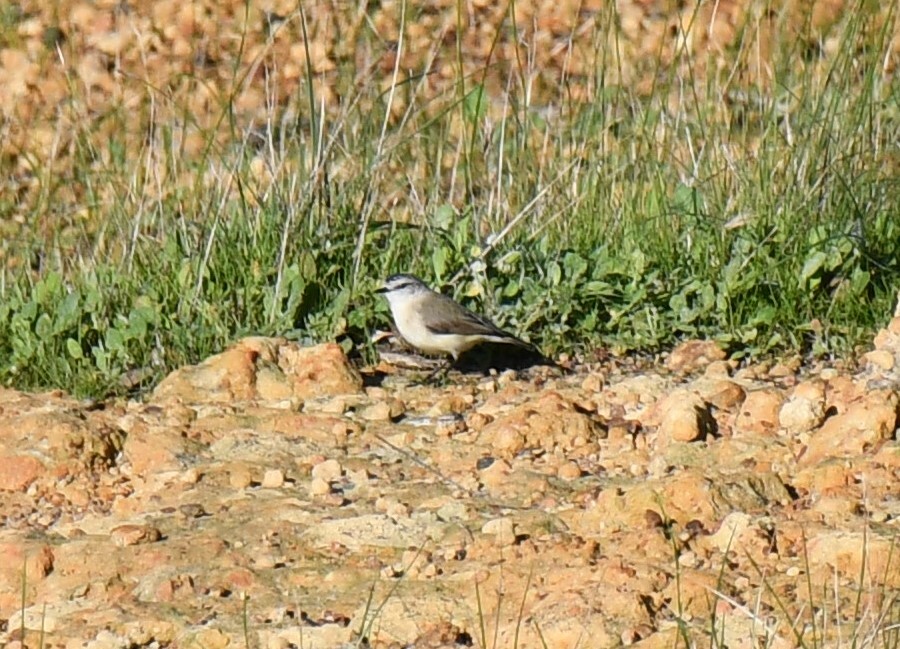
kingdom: Animalia
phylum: Chordata
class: Aves
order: Passeriformes
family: Acanthizidae
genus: Acanthiza
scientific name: Acanthiza chrysorrhoa
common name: Yellow-rumped thornbill
